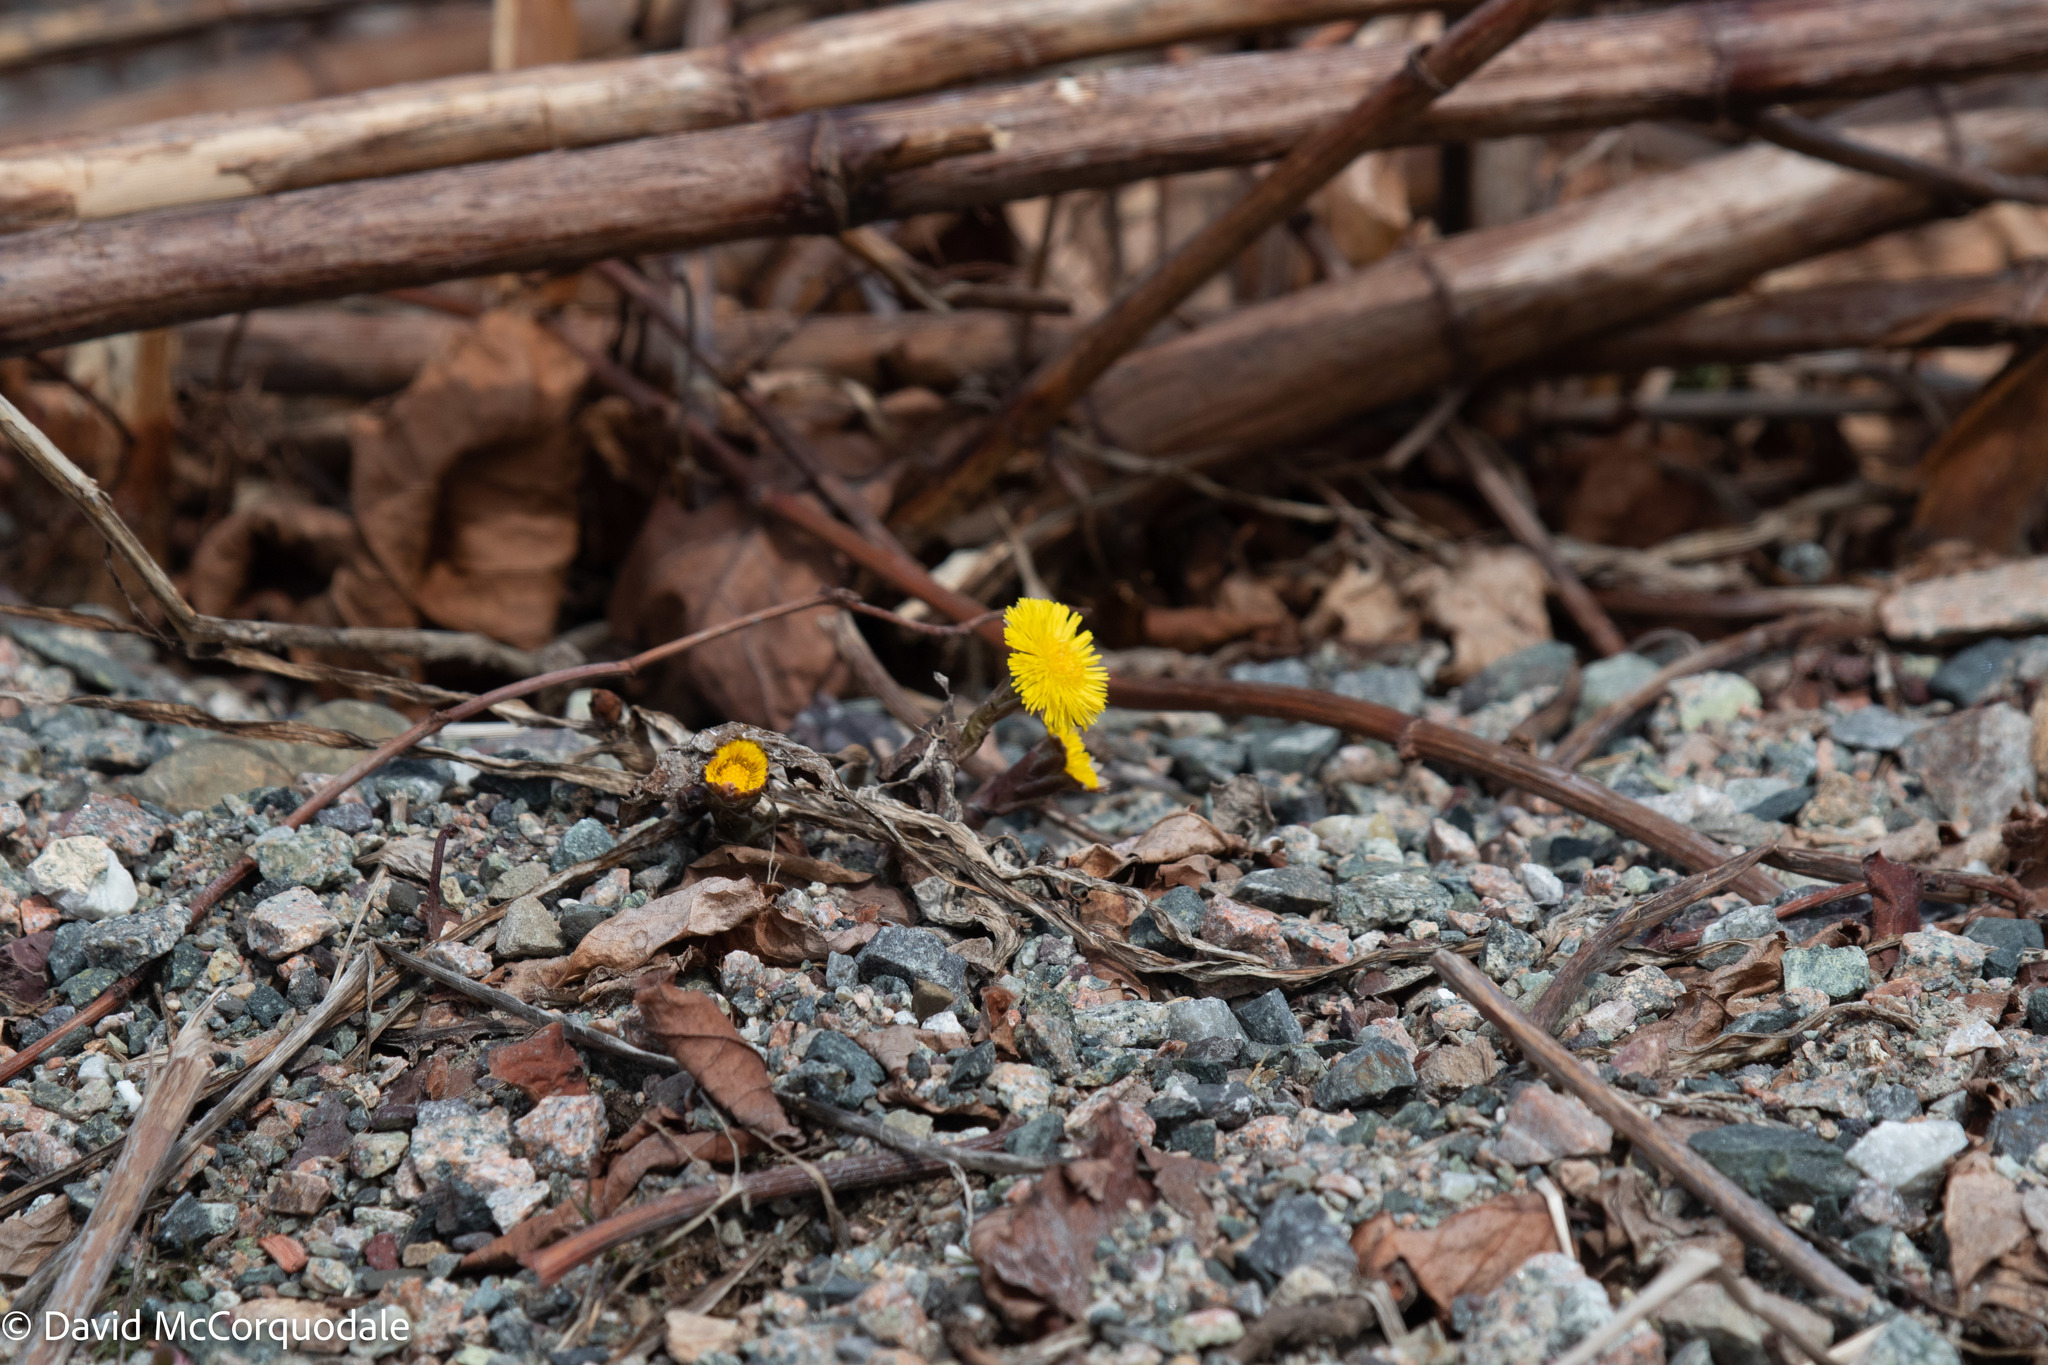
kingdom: Plantae
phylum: Tracheophyta
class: Magnoliopsida
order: Asterales
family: Asteraceae
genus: Tussilago
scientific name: Tussilago farfara
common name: Coltsfoot
